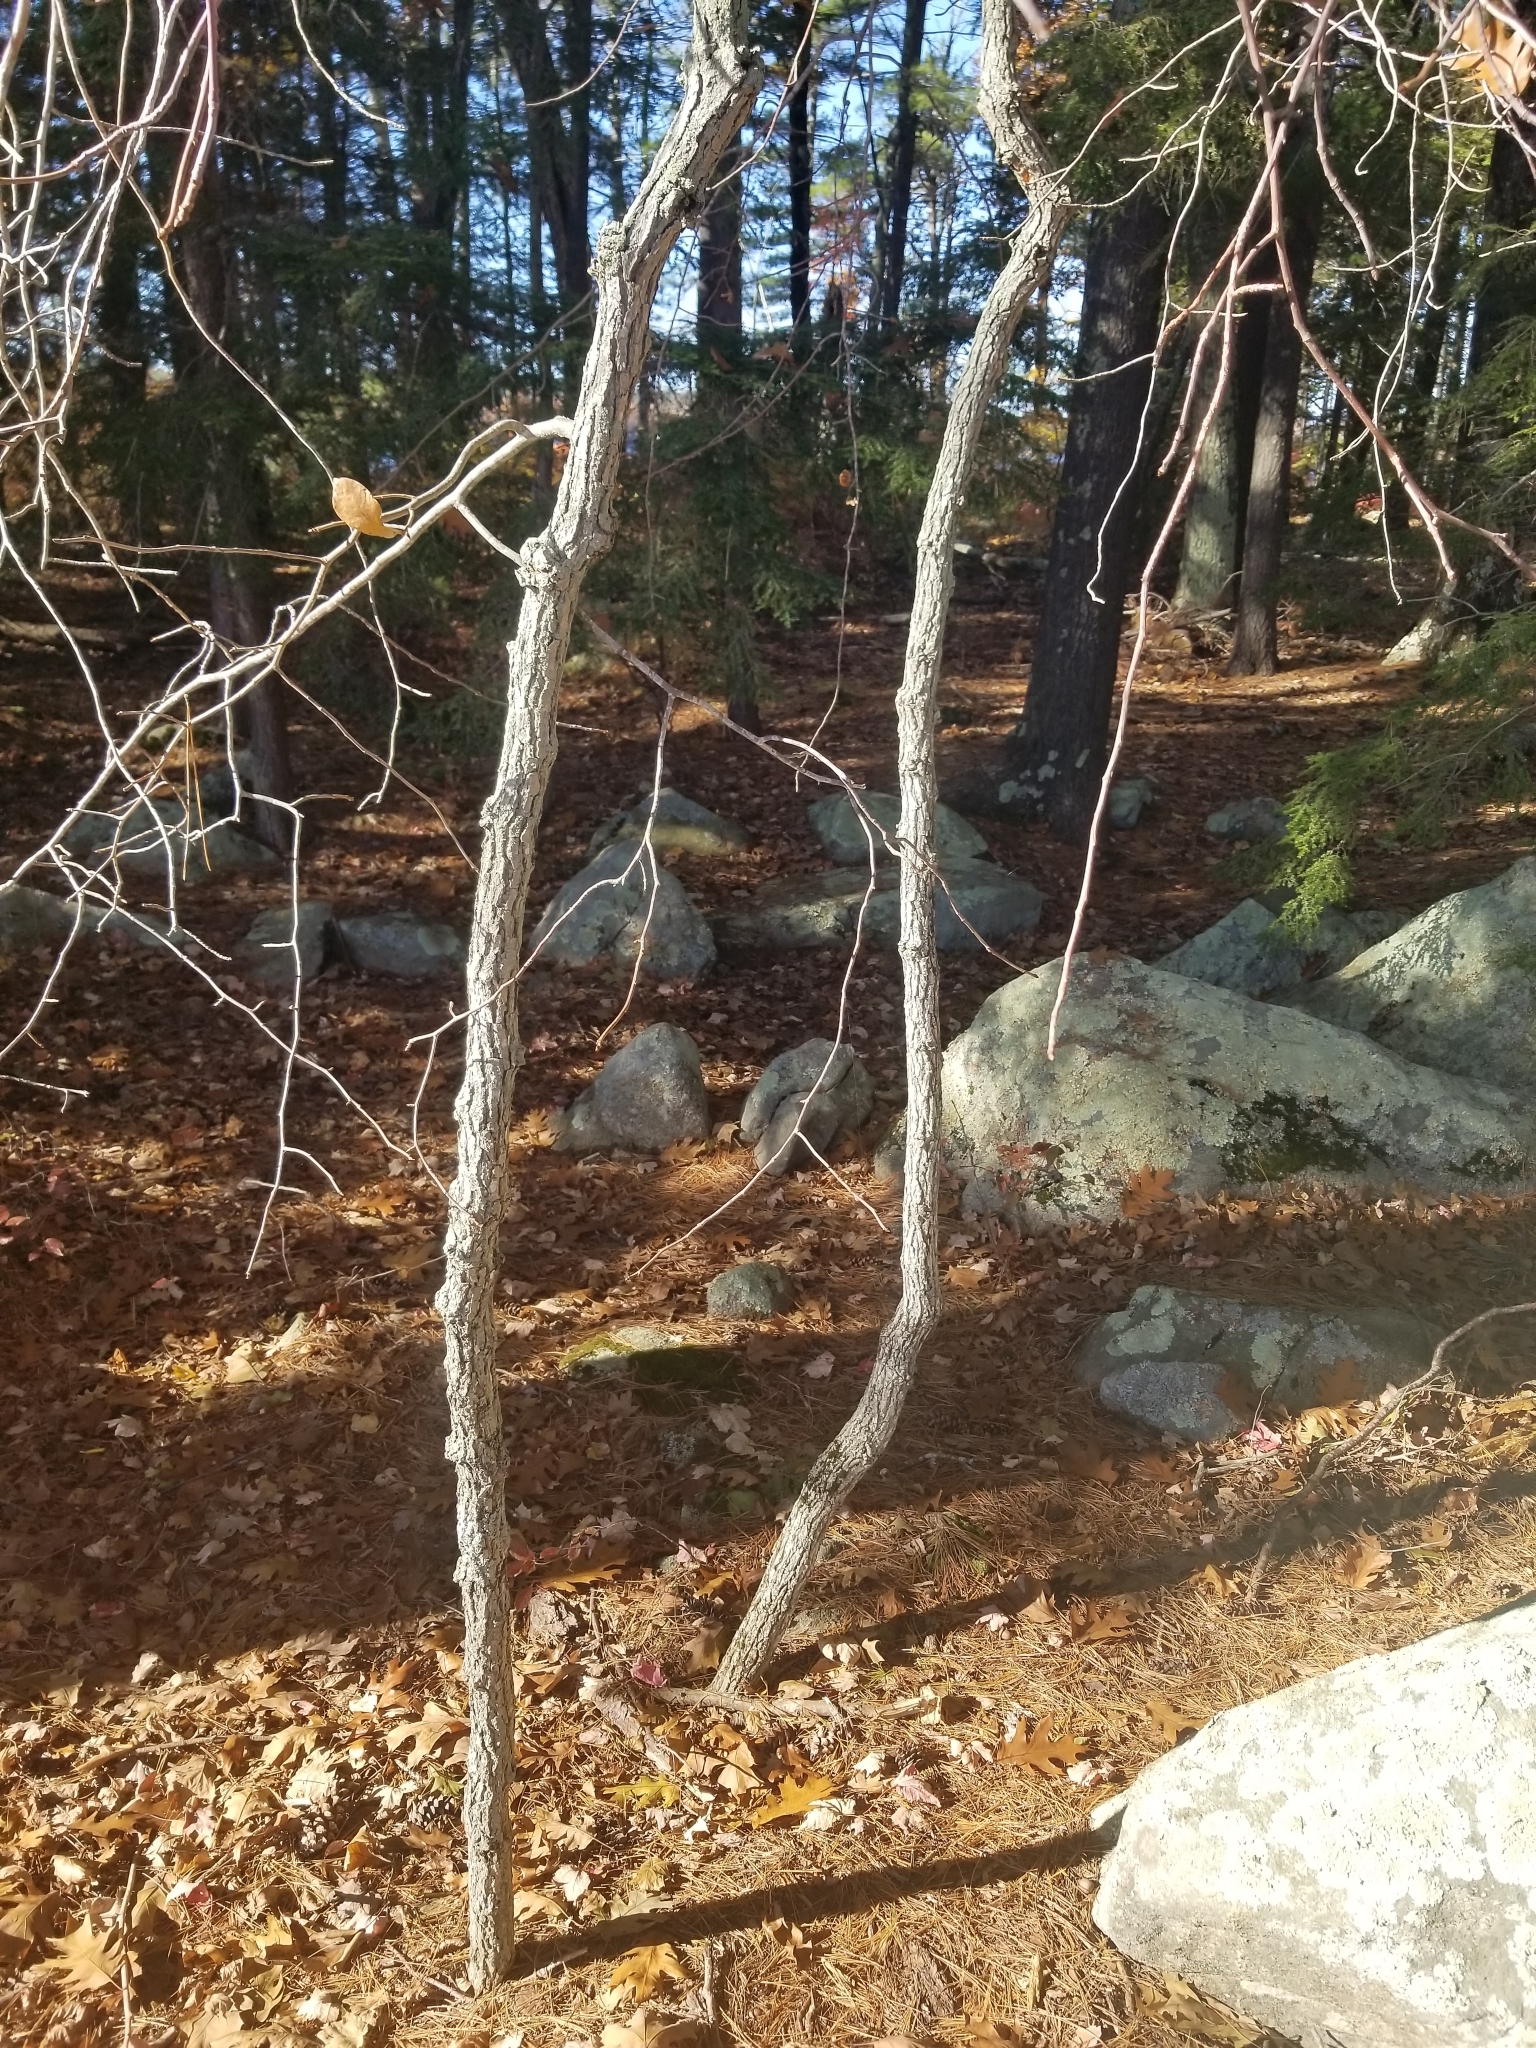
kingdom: Plantae
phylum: Tracheophyta
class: Magnoliopsida
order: Cornales
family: Nyssaceae
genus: Nyssa
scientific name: Nyssa sylvatica
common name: Black tupelo
